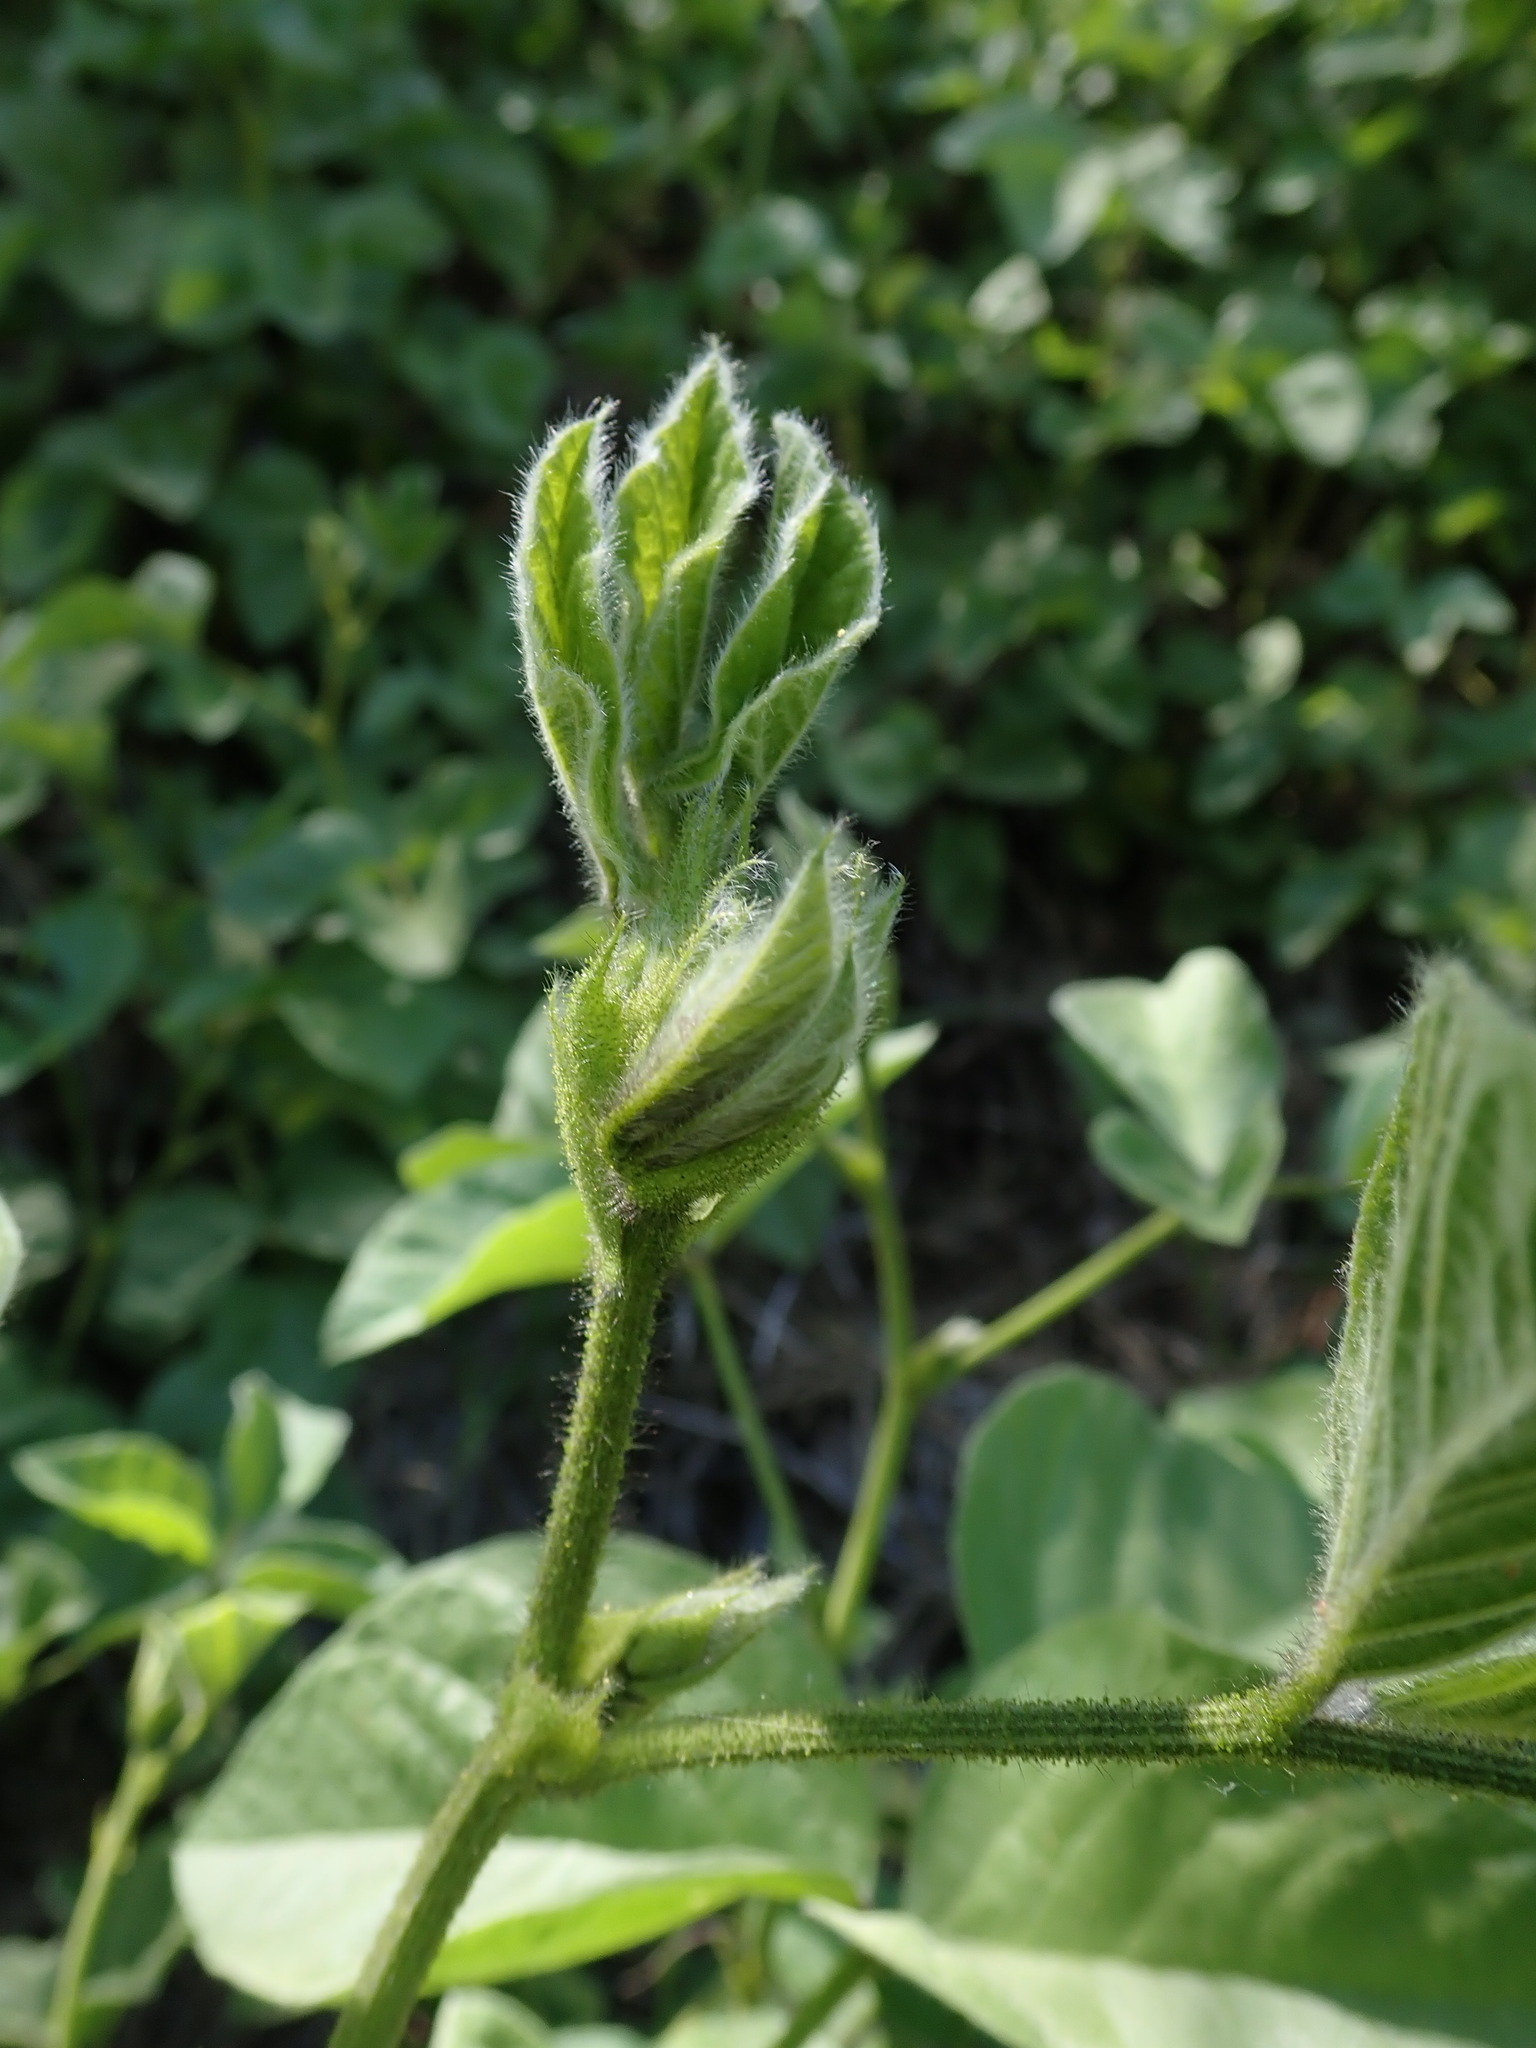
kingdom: Plantae
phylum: Tracheophyta
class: Magnoliopsida
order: Fabales
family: Fabaceae
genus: Hoita
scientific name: Hoita strobilina
